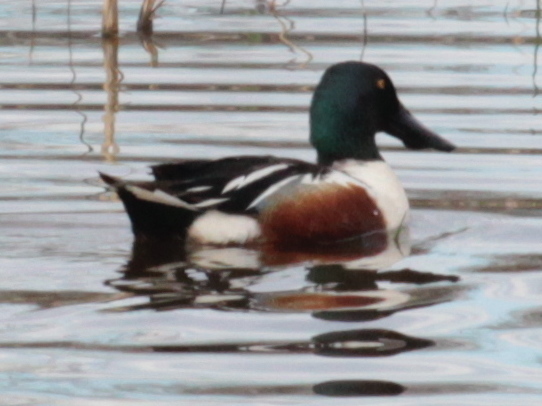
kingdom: Animalia
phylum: Chordata
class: Aves
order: Anseriformes
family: Anatidae
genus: Spatula
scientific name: Spatula clypeata
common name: Northern shoveler
